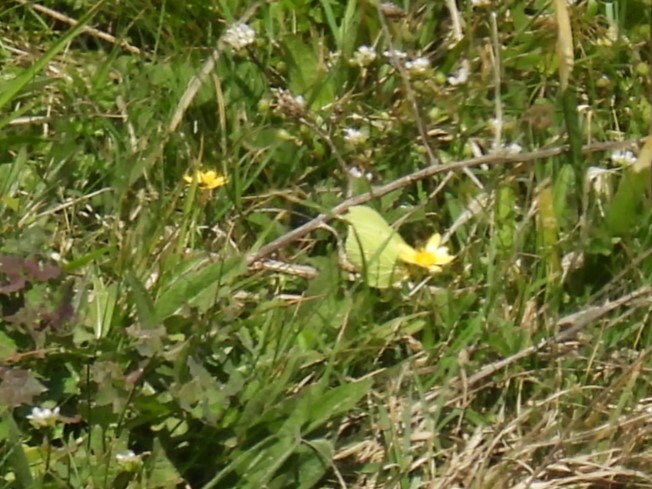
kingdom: Animalia
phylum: Arthropoda
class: Insecta
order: Lepidoptera
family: Pieridae
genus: Gonepteryx
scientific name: Gonepteryx rhamni
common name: Brimstone
